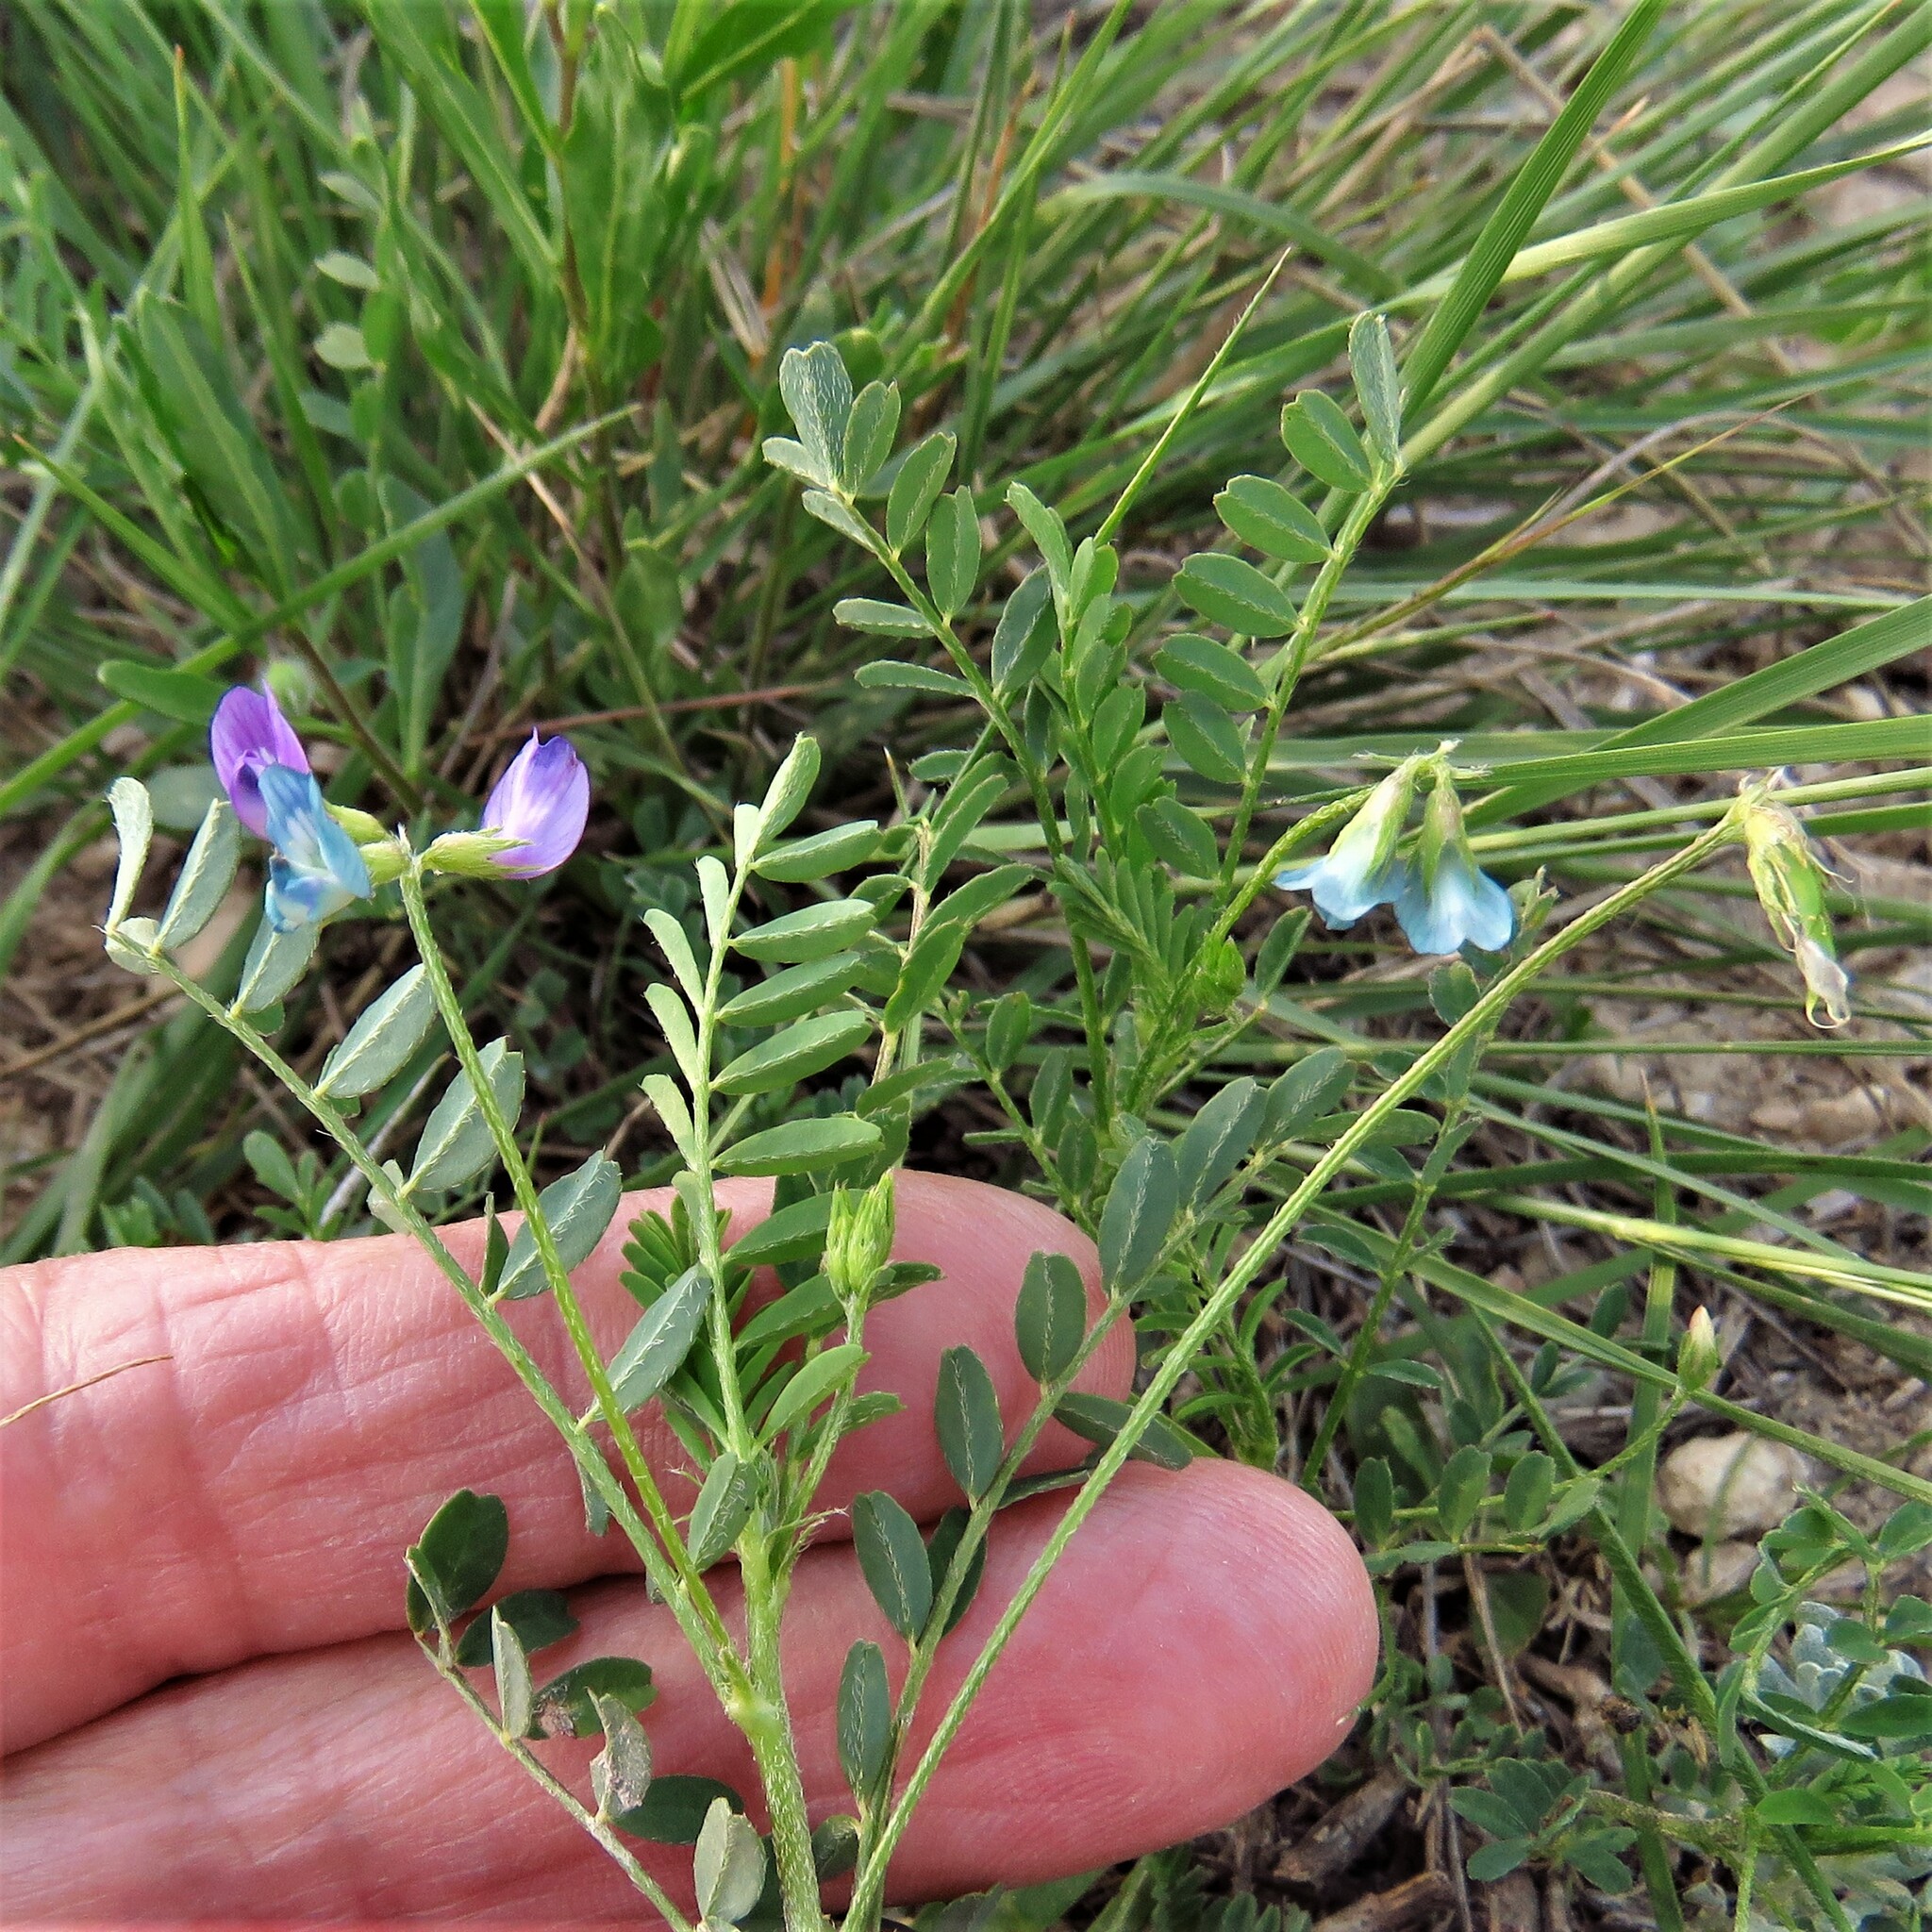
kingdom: Plantae
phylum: Tracheophyta
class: Magnoliopsida
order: Fabales
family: Fabaceae
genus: Astragalus
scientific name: Astragalus nuttallianus
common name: Smallflowered milkvetch
